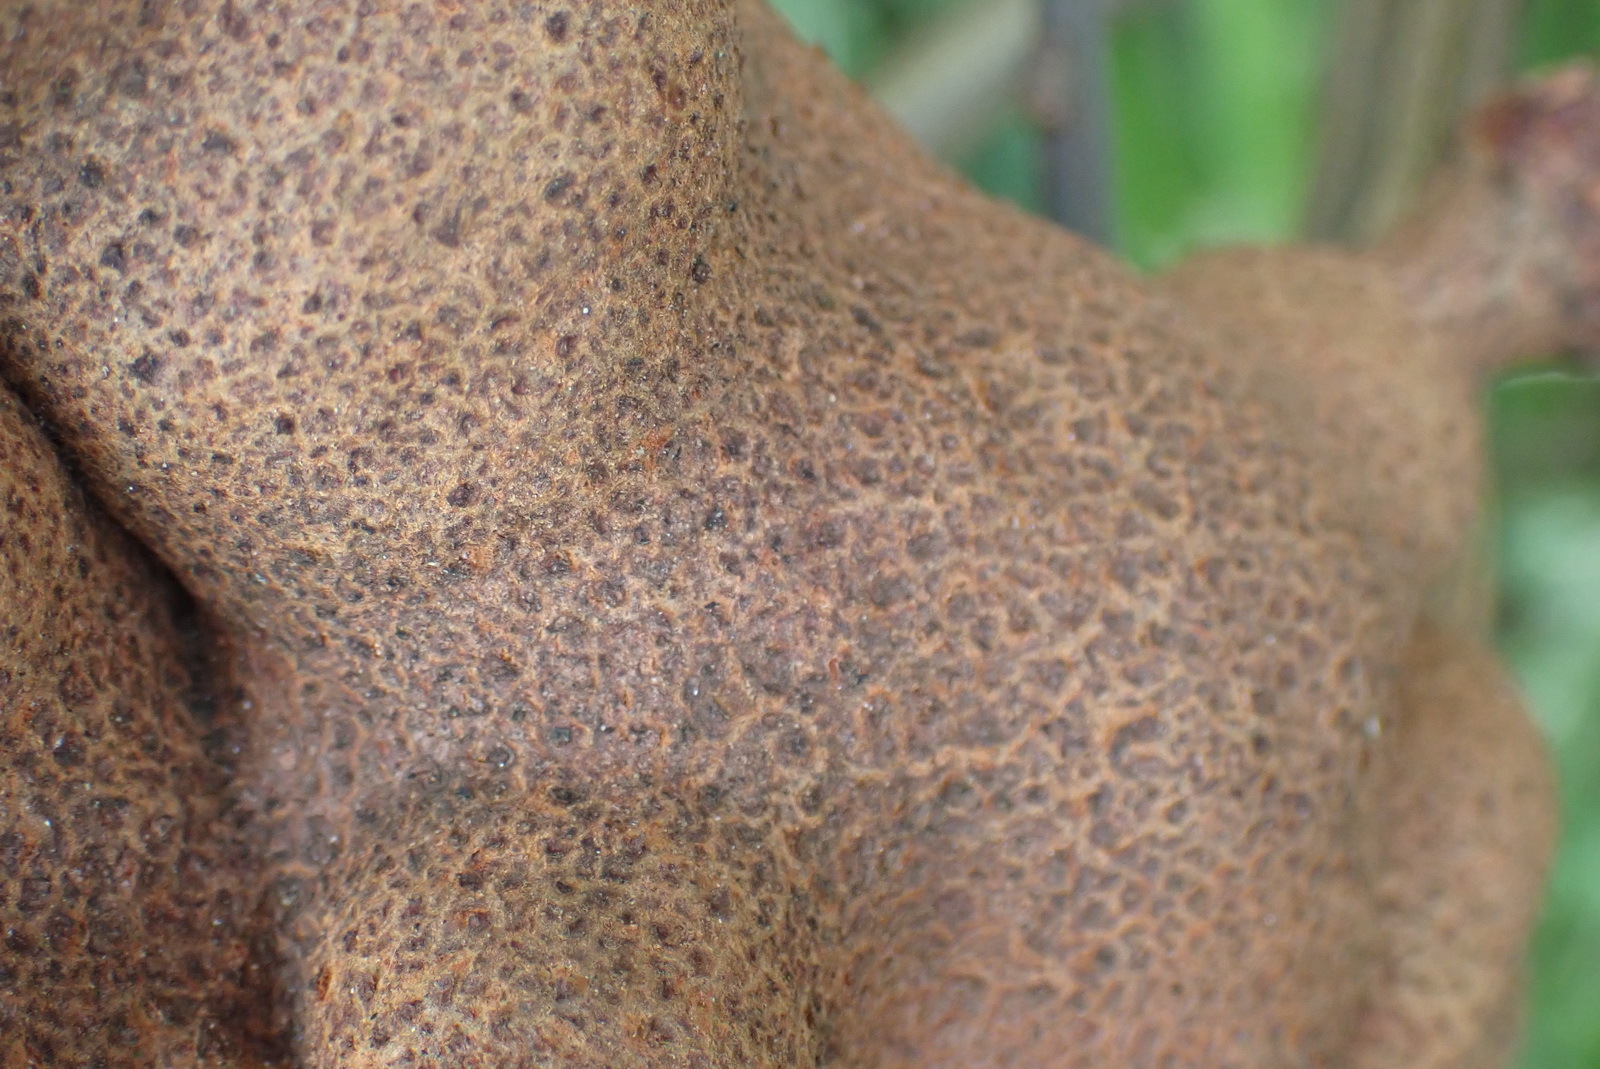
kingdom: Fungi
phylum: Basidiomycota
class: Pucciniomycetes
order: Pucciniales
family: Uromycladiaceae
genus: Uromycladium
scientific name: Uromycladium woodii
